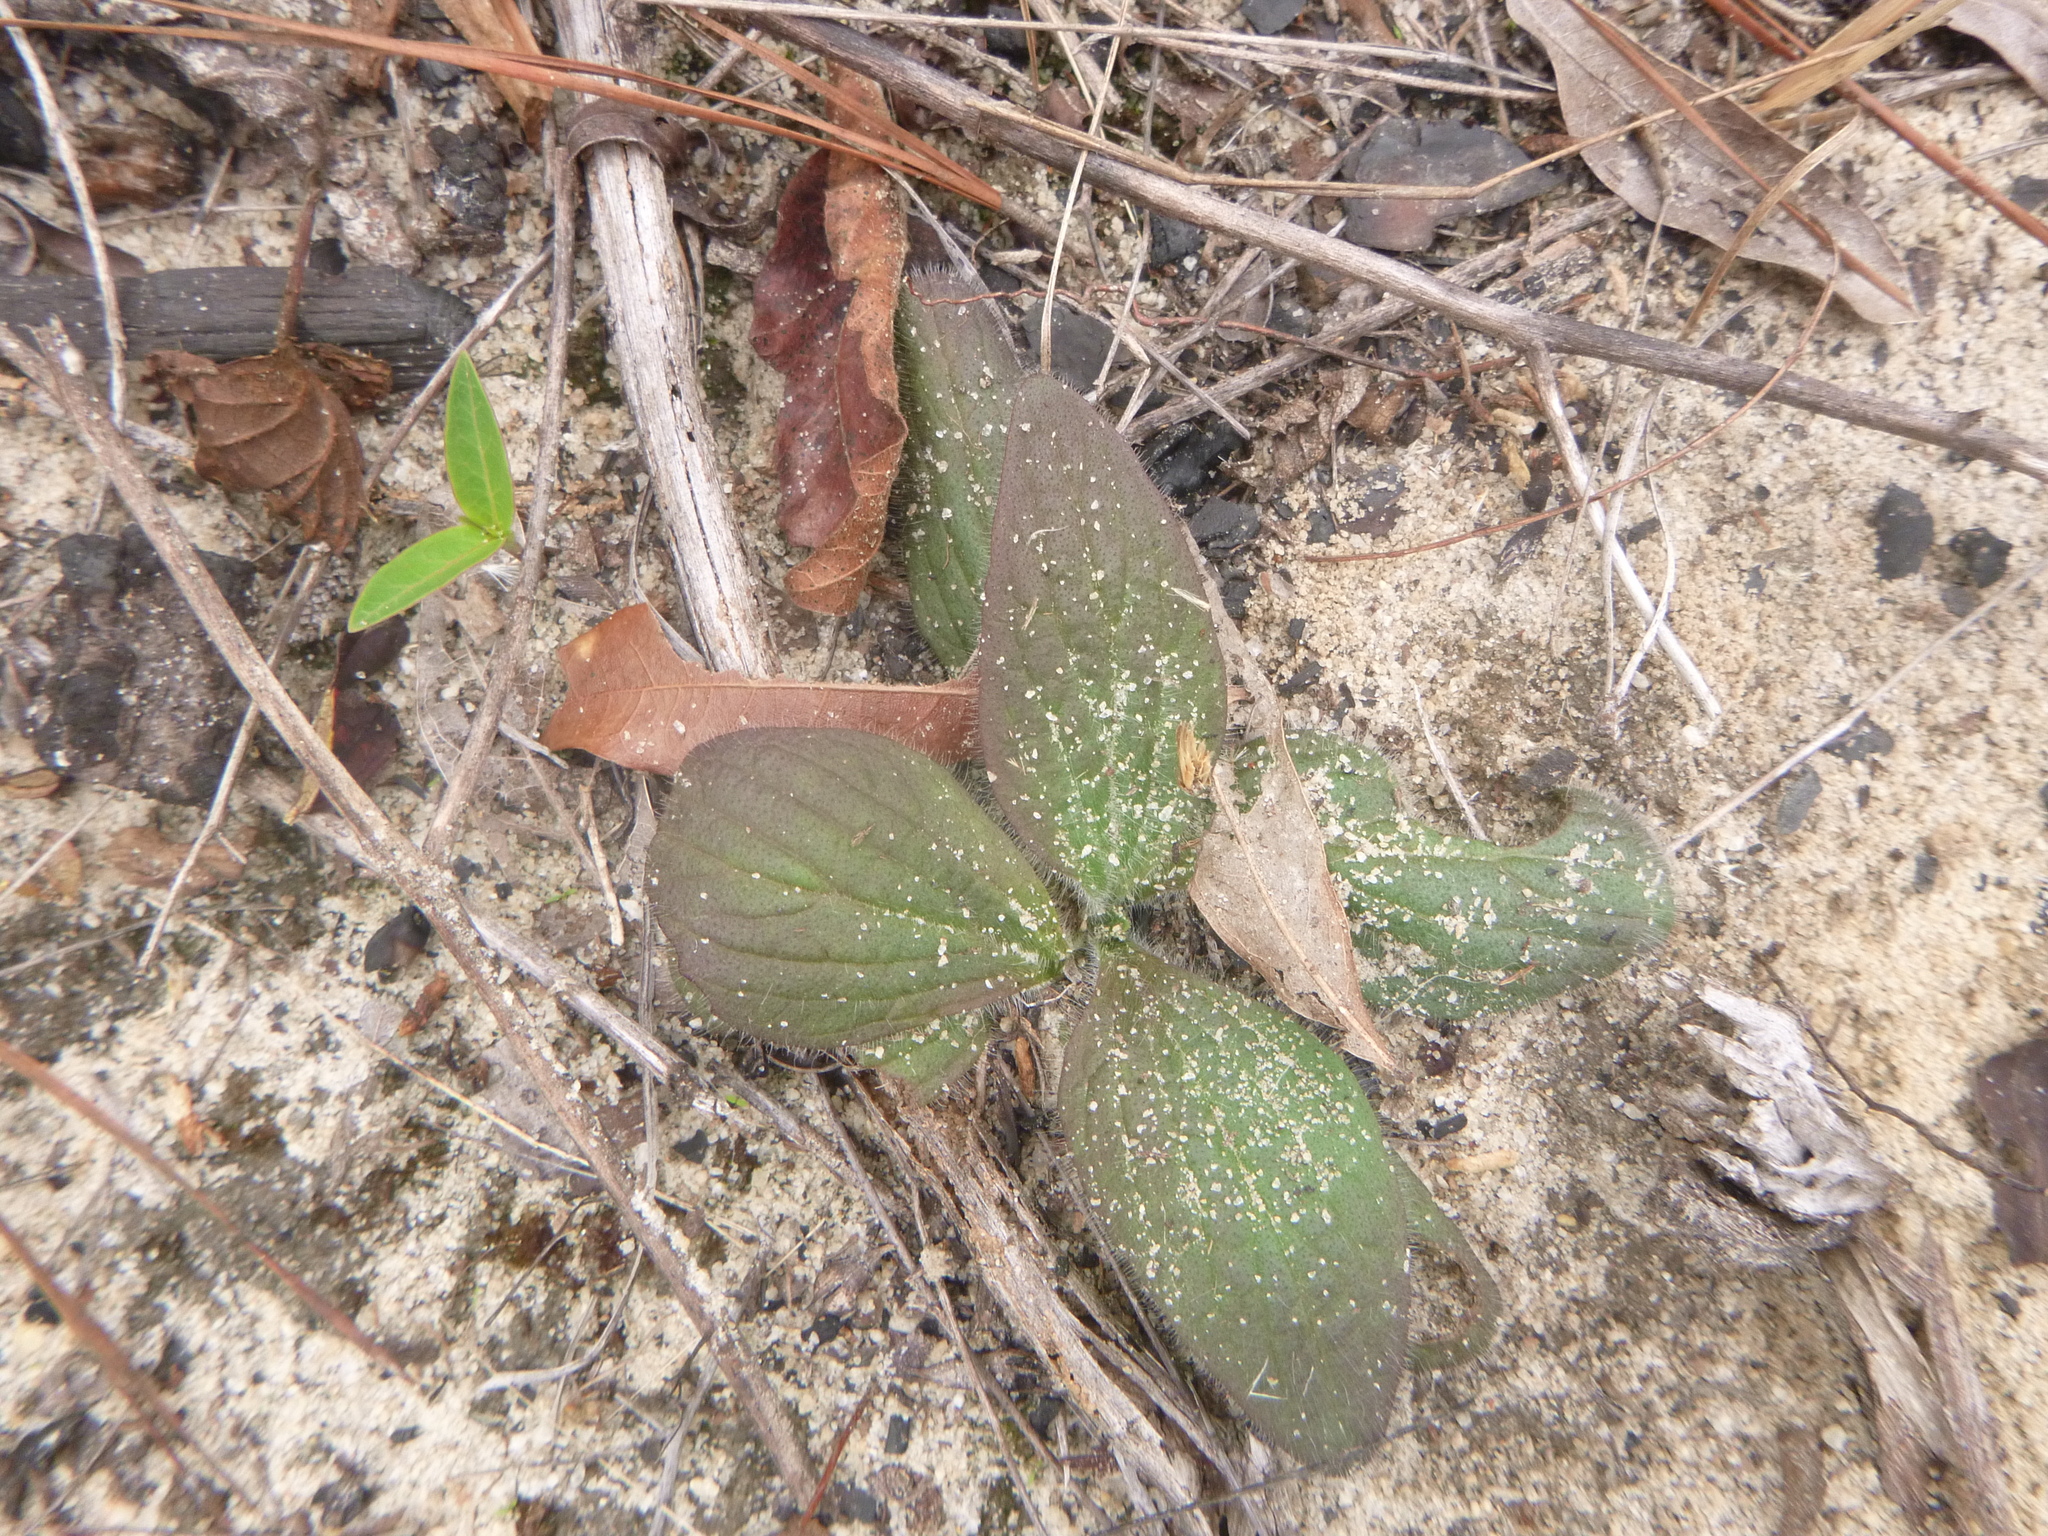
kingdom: Plantae
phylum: Tracheophyta
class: Magnoliopsida
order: Lamiales
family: Orobanchaceae
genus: Aureolaria
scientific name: Aureolaria pectinata
